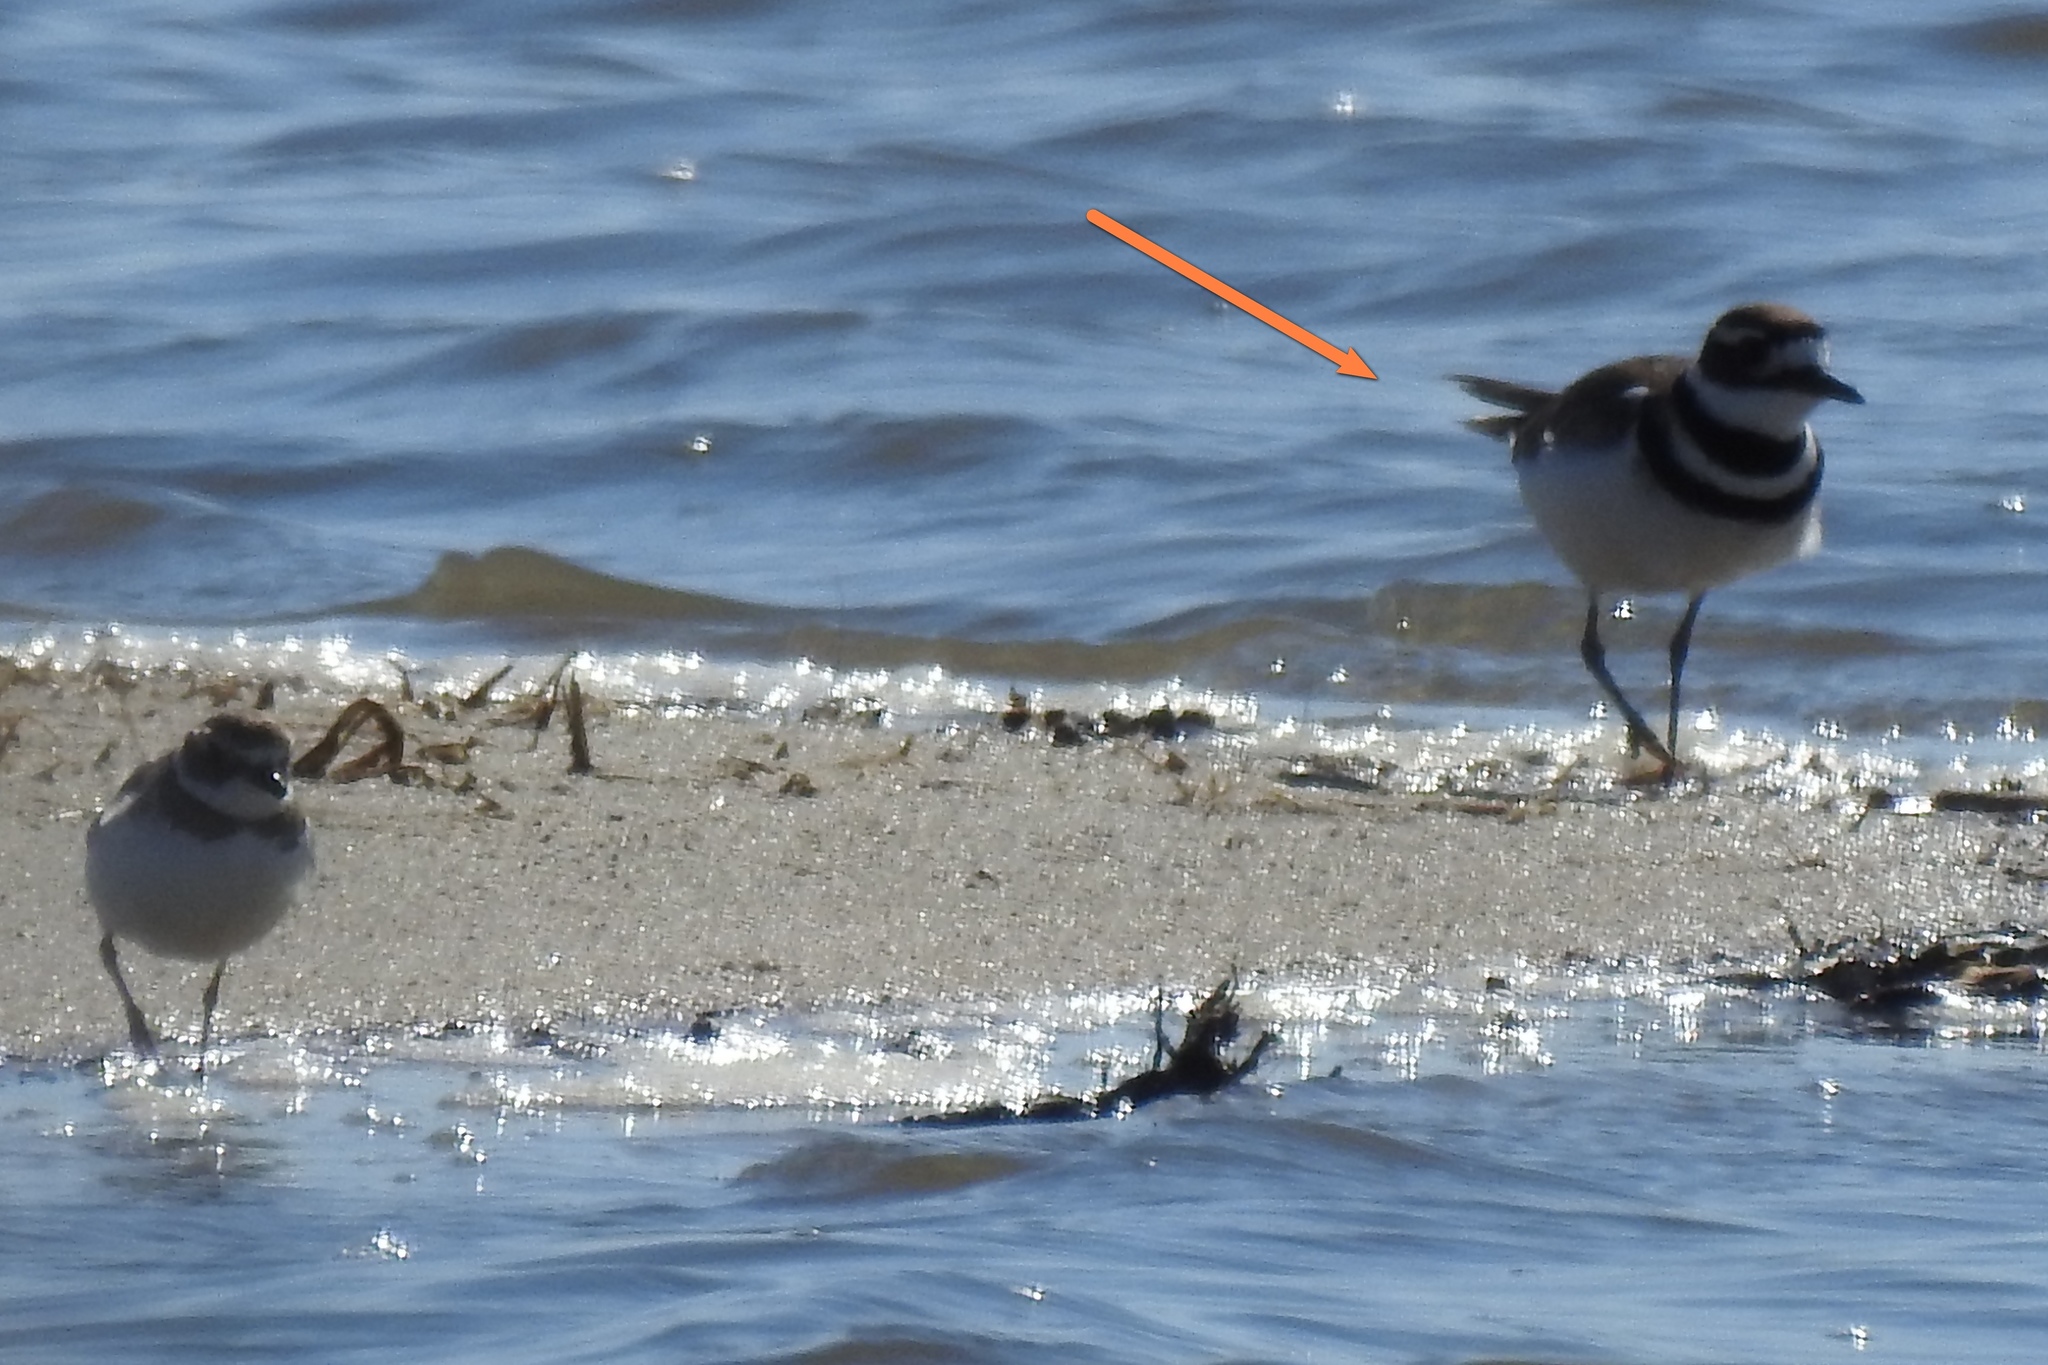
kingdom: Animalia
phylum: Chordata
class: Aves
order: Charadriiformes
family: Charadriidae
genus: Charadrius
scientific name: Charadrius vociferus
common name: Killdeer
